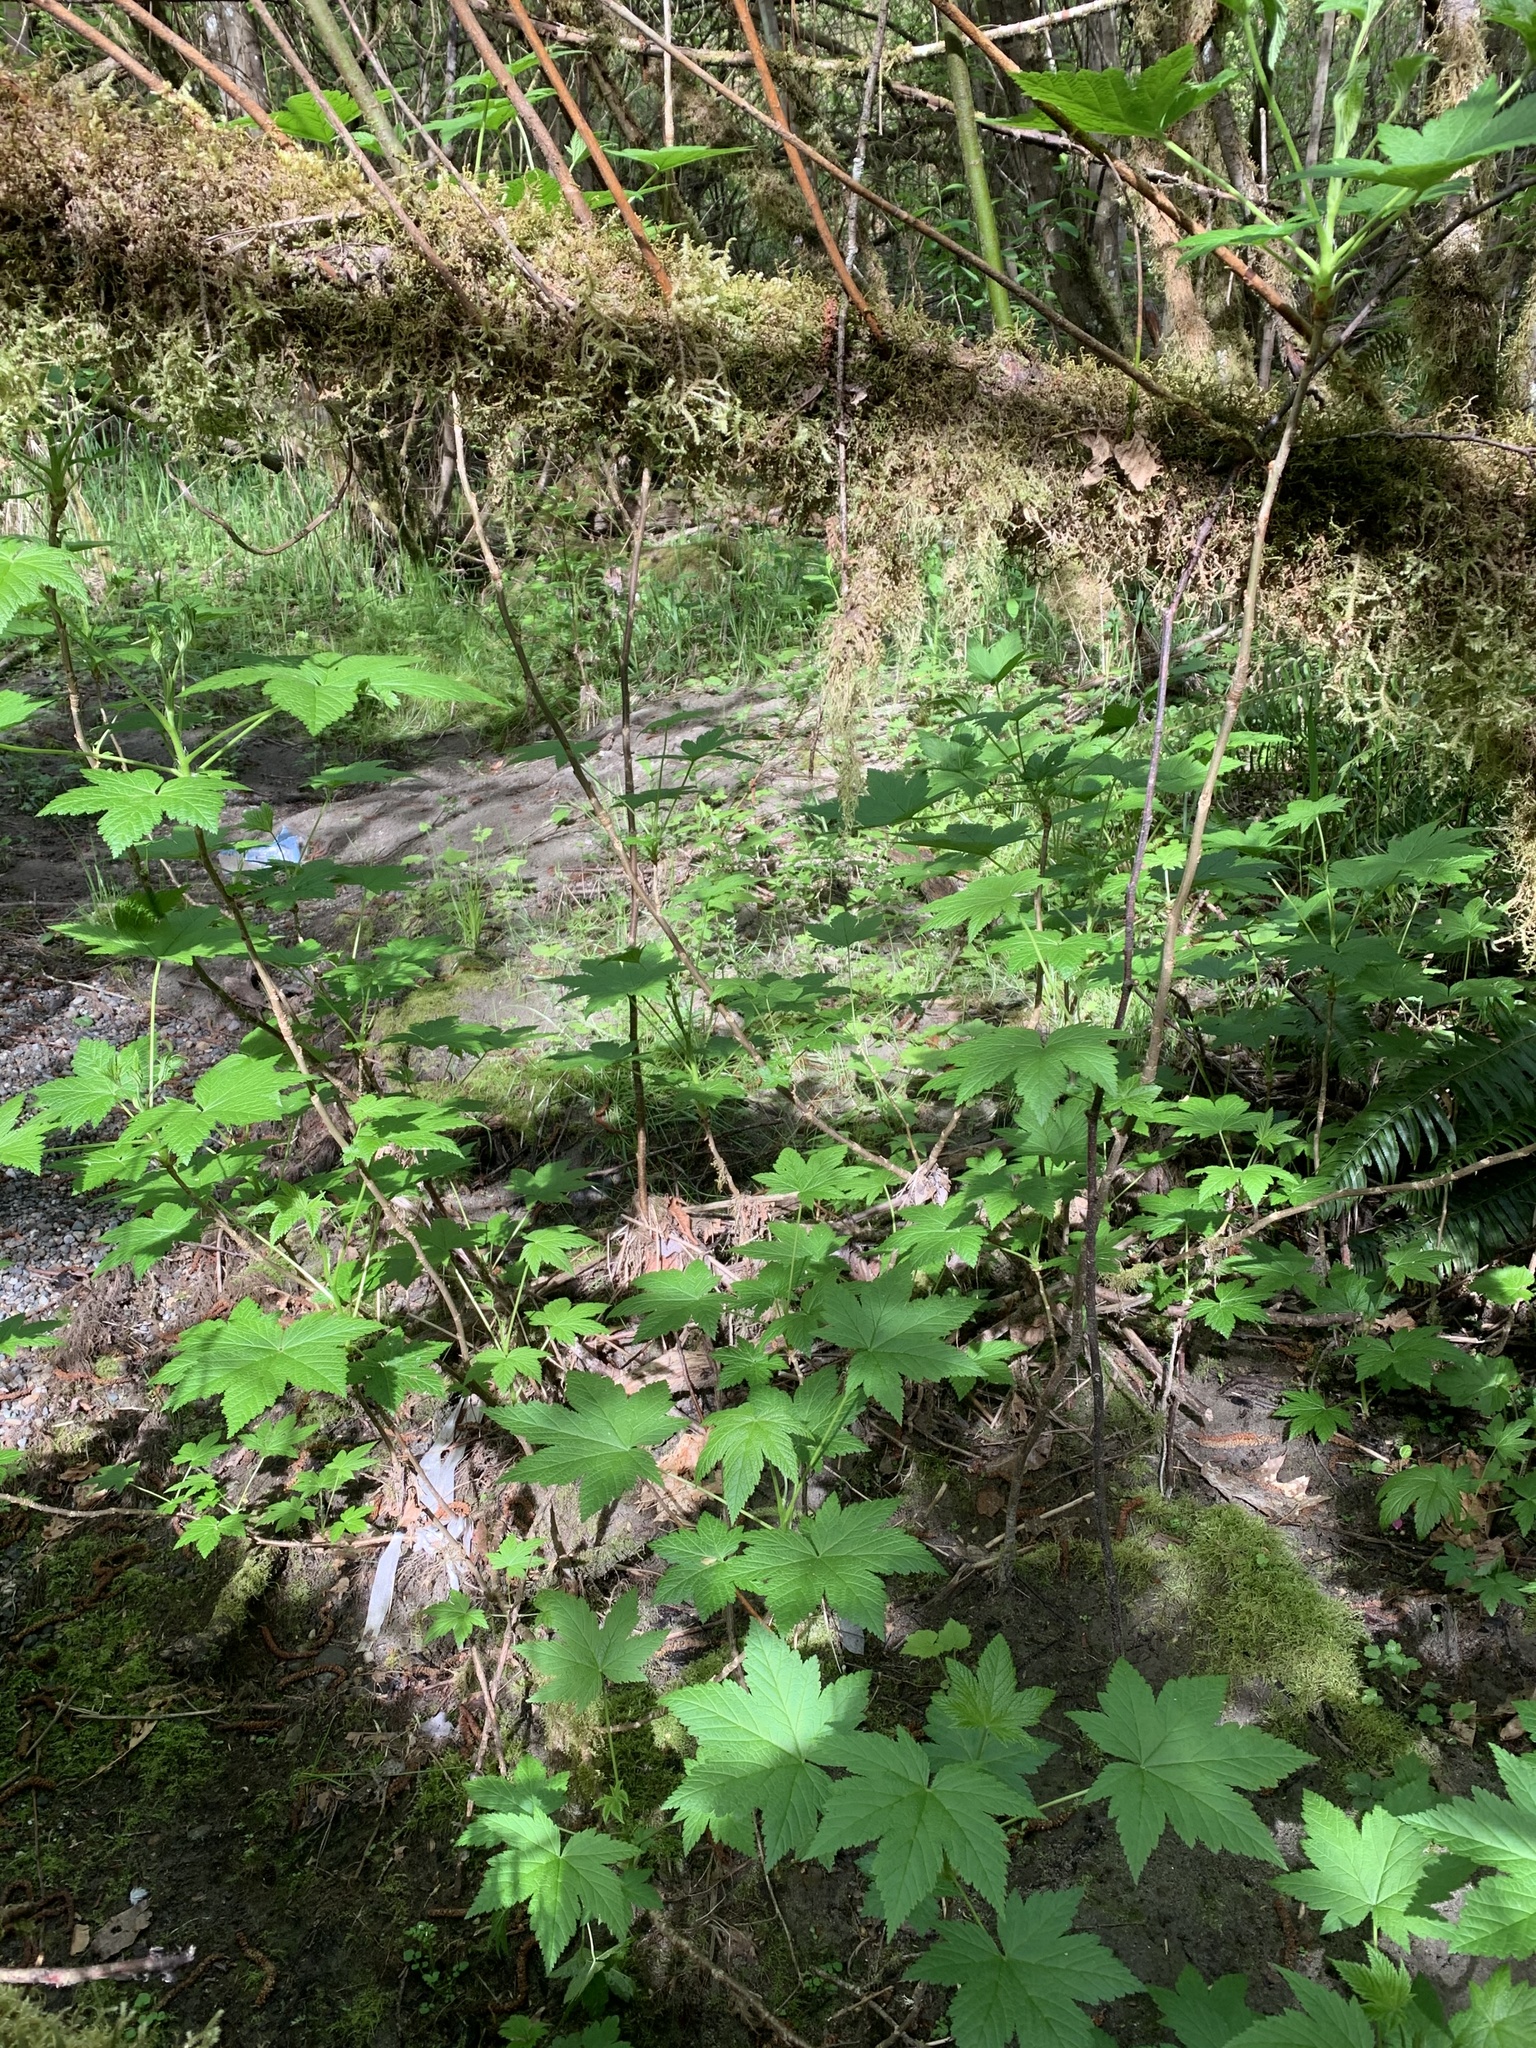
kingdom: Plantae
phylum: Tracheophyta
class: Magnoliopsida
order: Saxifragales
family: Grossulariaceae
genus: Ribes
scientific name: Ribes bracteosum
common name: California black currant
